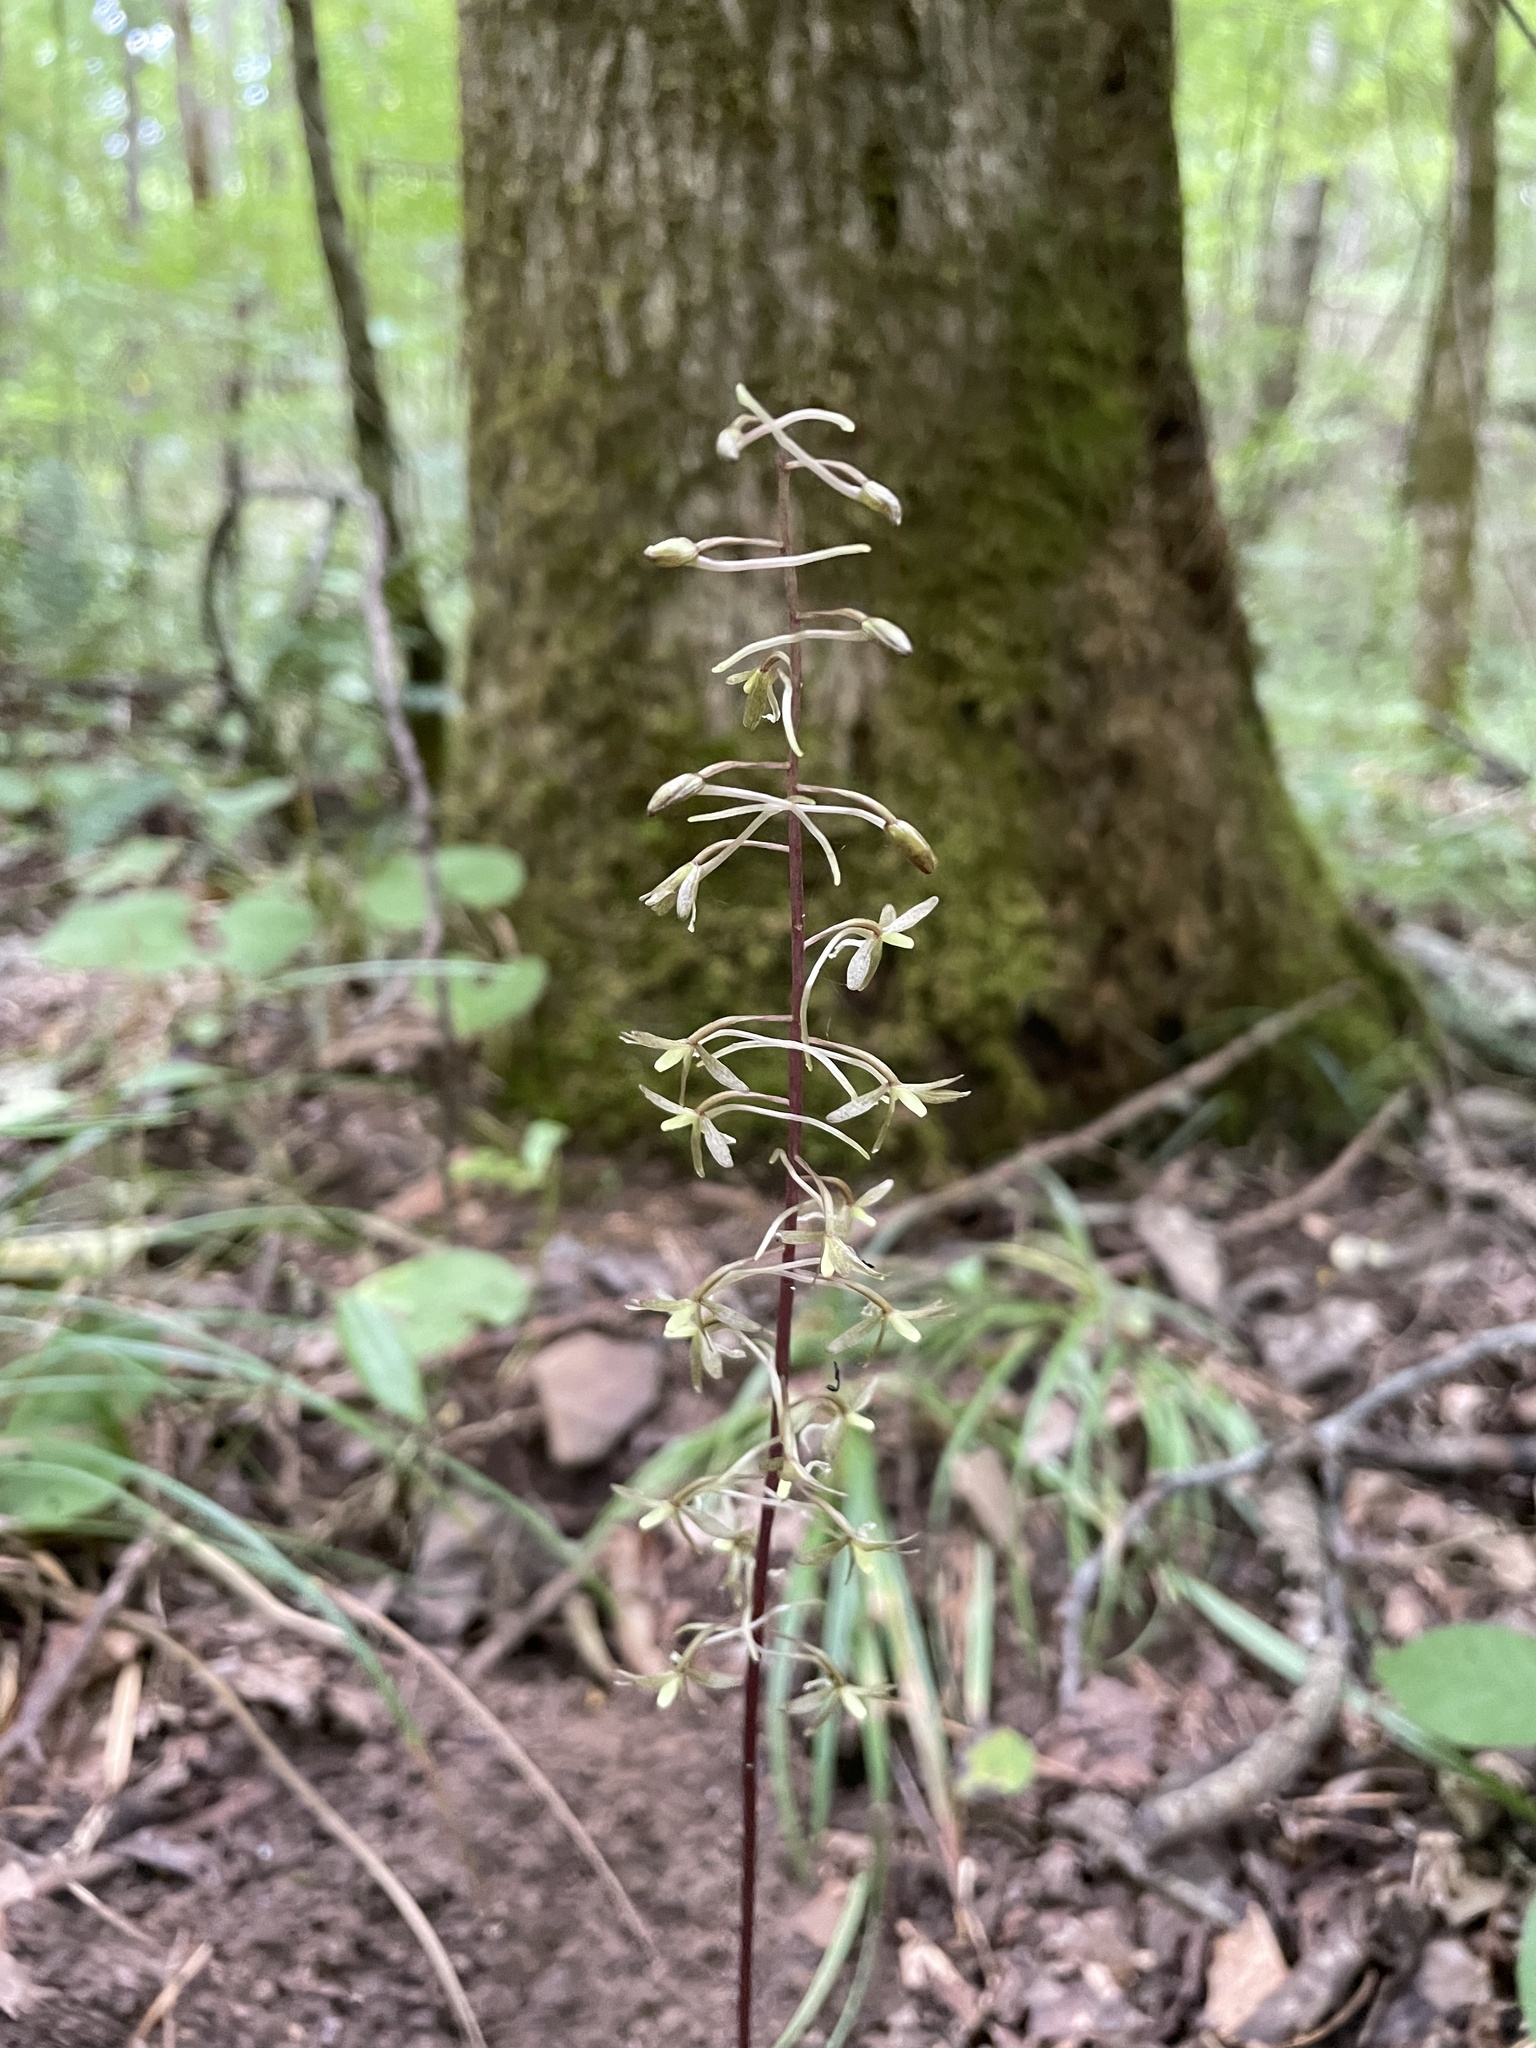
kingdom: Plantae
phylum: Tracheophyta
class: Liliopsida
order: Asparagales
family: Orchidaceae
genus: Tipularia
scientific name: Tipularia discolor
